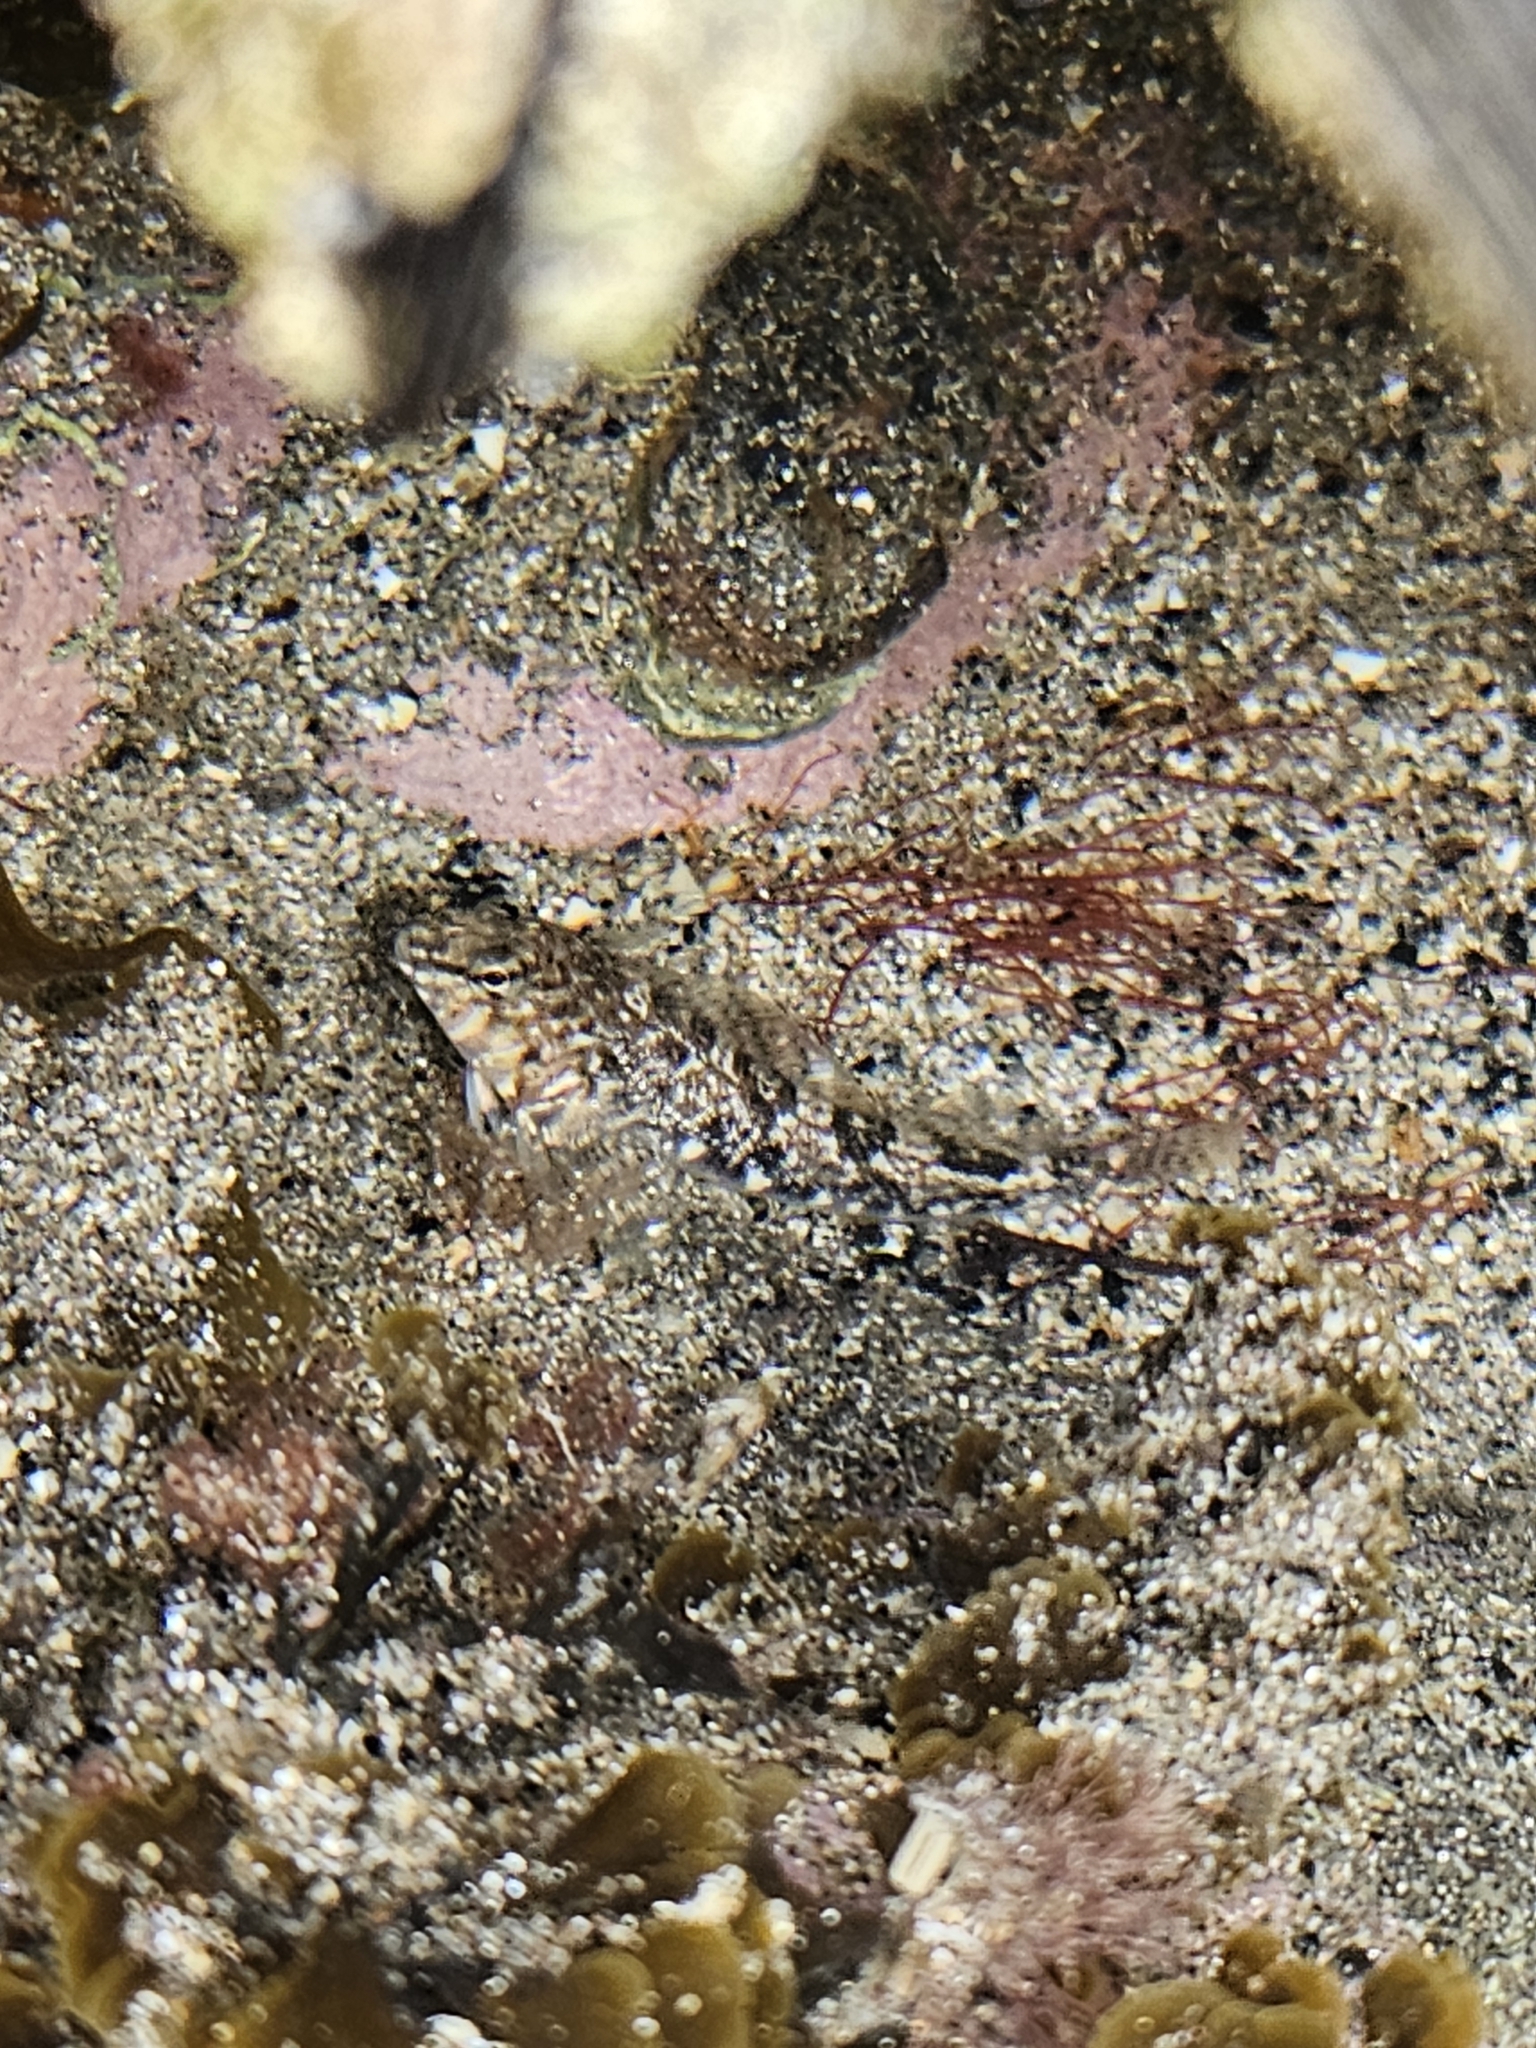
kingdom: Animalia
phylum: Chordata
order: Perciformes
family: Tripterygiidae
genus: Bellapiscis
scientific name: Bellapiscis medius
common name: Twister
